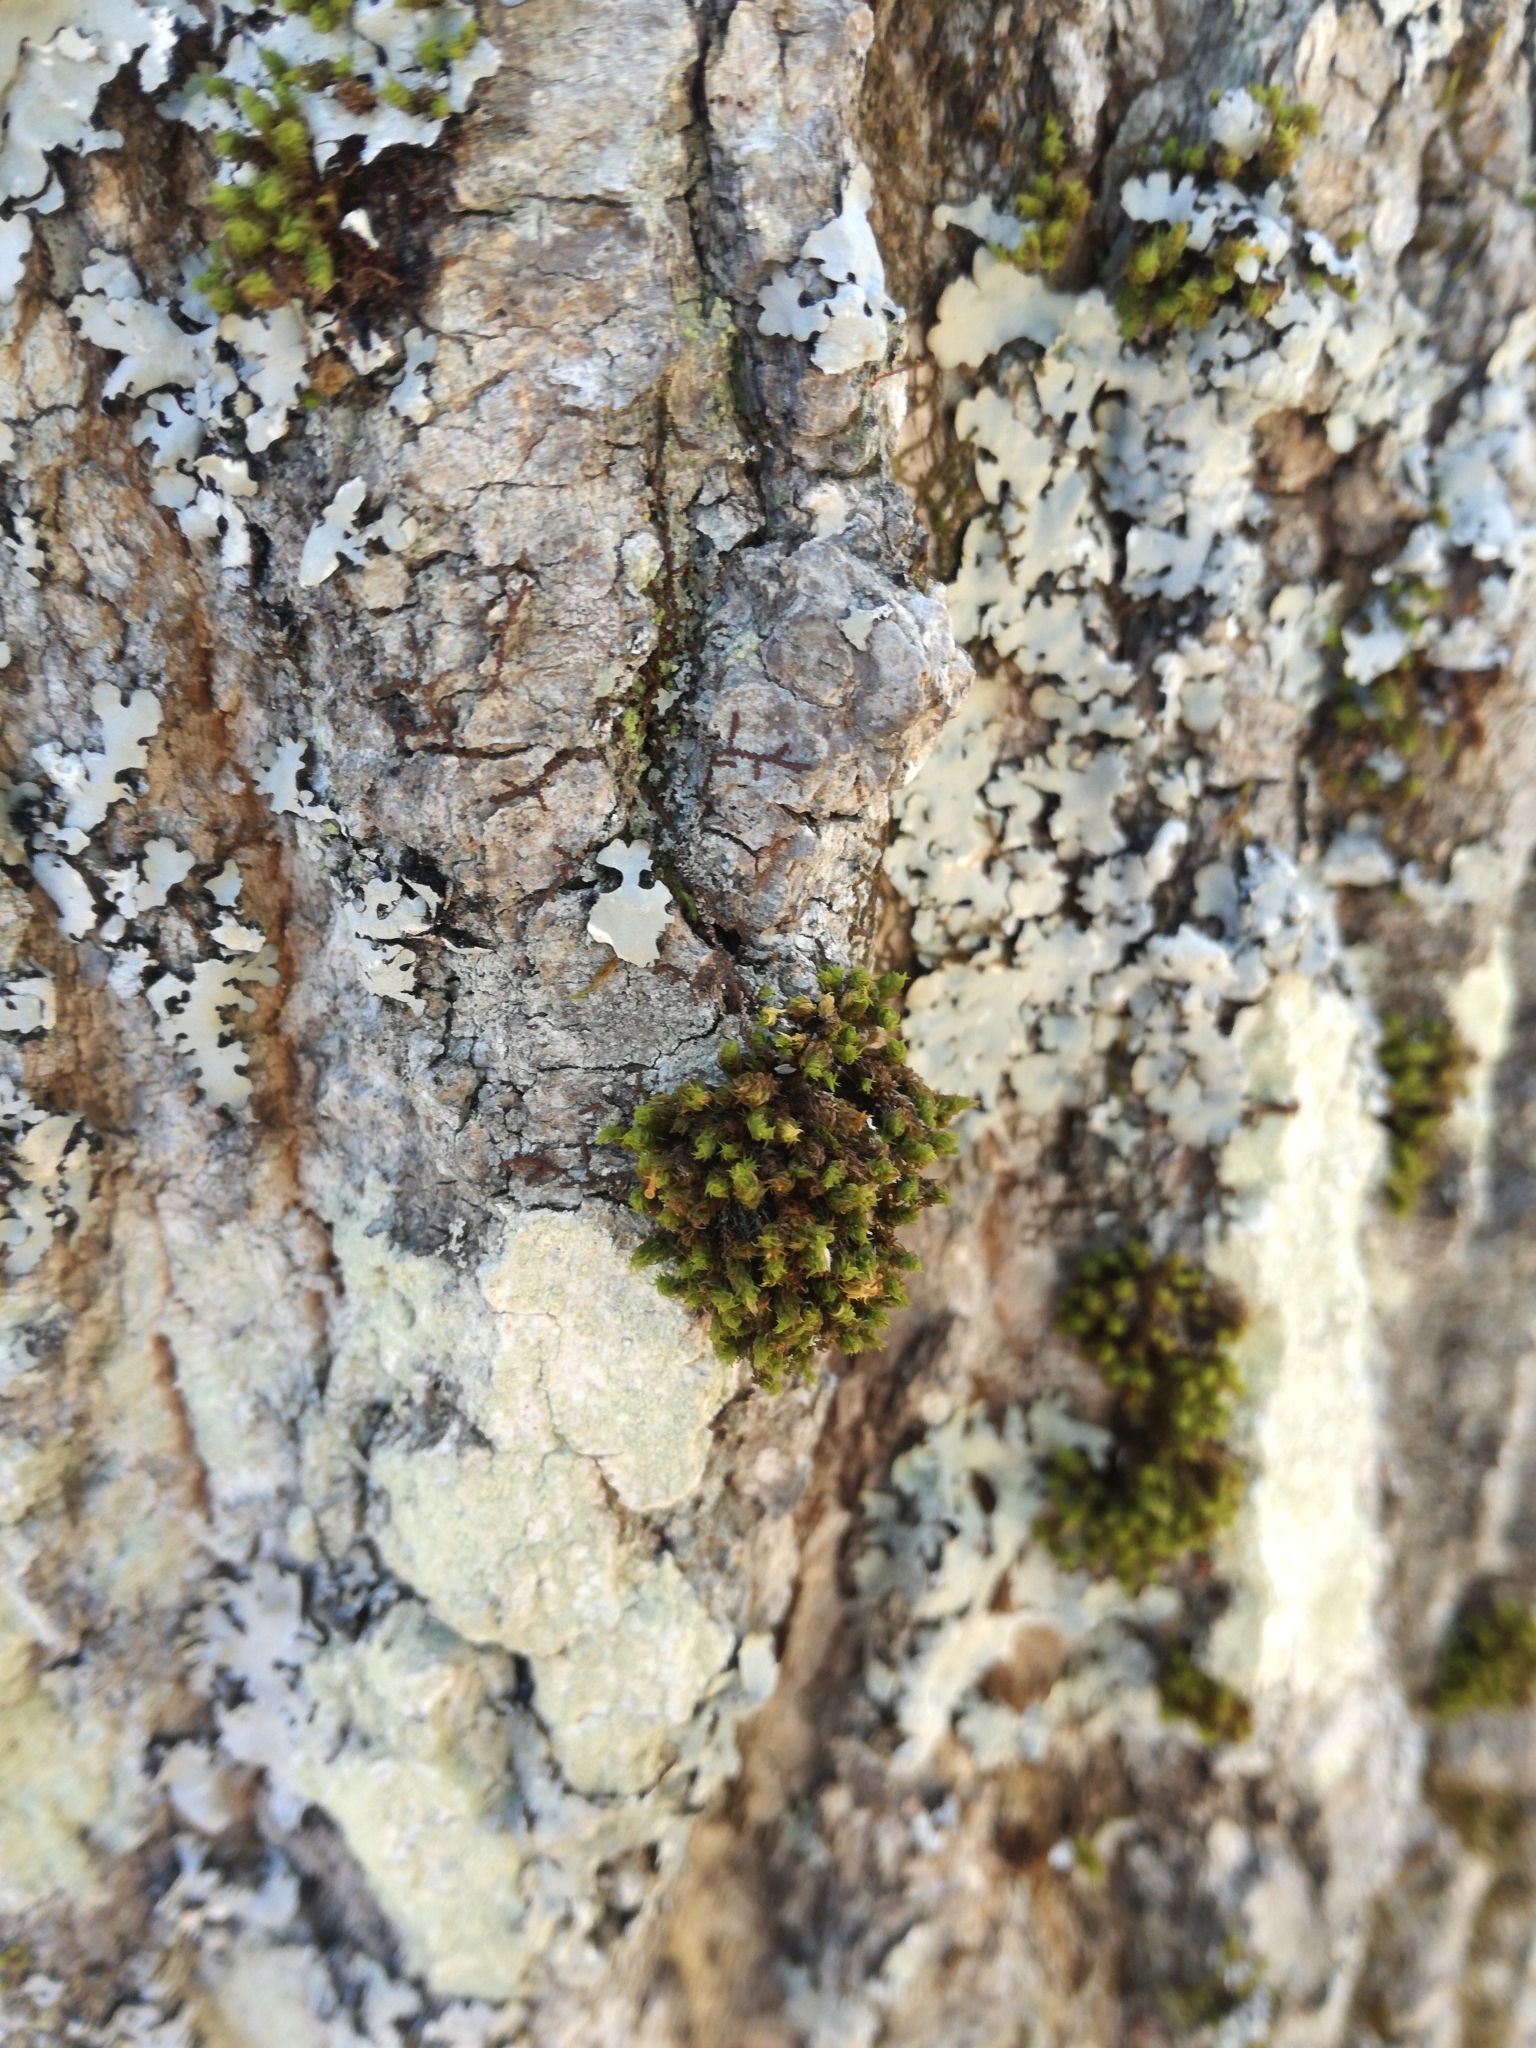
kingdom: Plantae
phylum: Bryophyta
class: Bryopsida
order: Orthotrichales
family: Orthotrichaceae
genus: Ulota
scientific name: Ulota crispa
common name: Crisped pincushion moss
